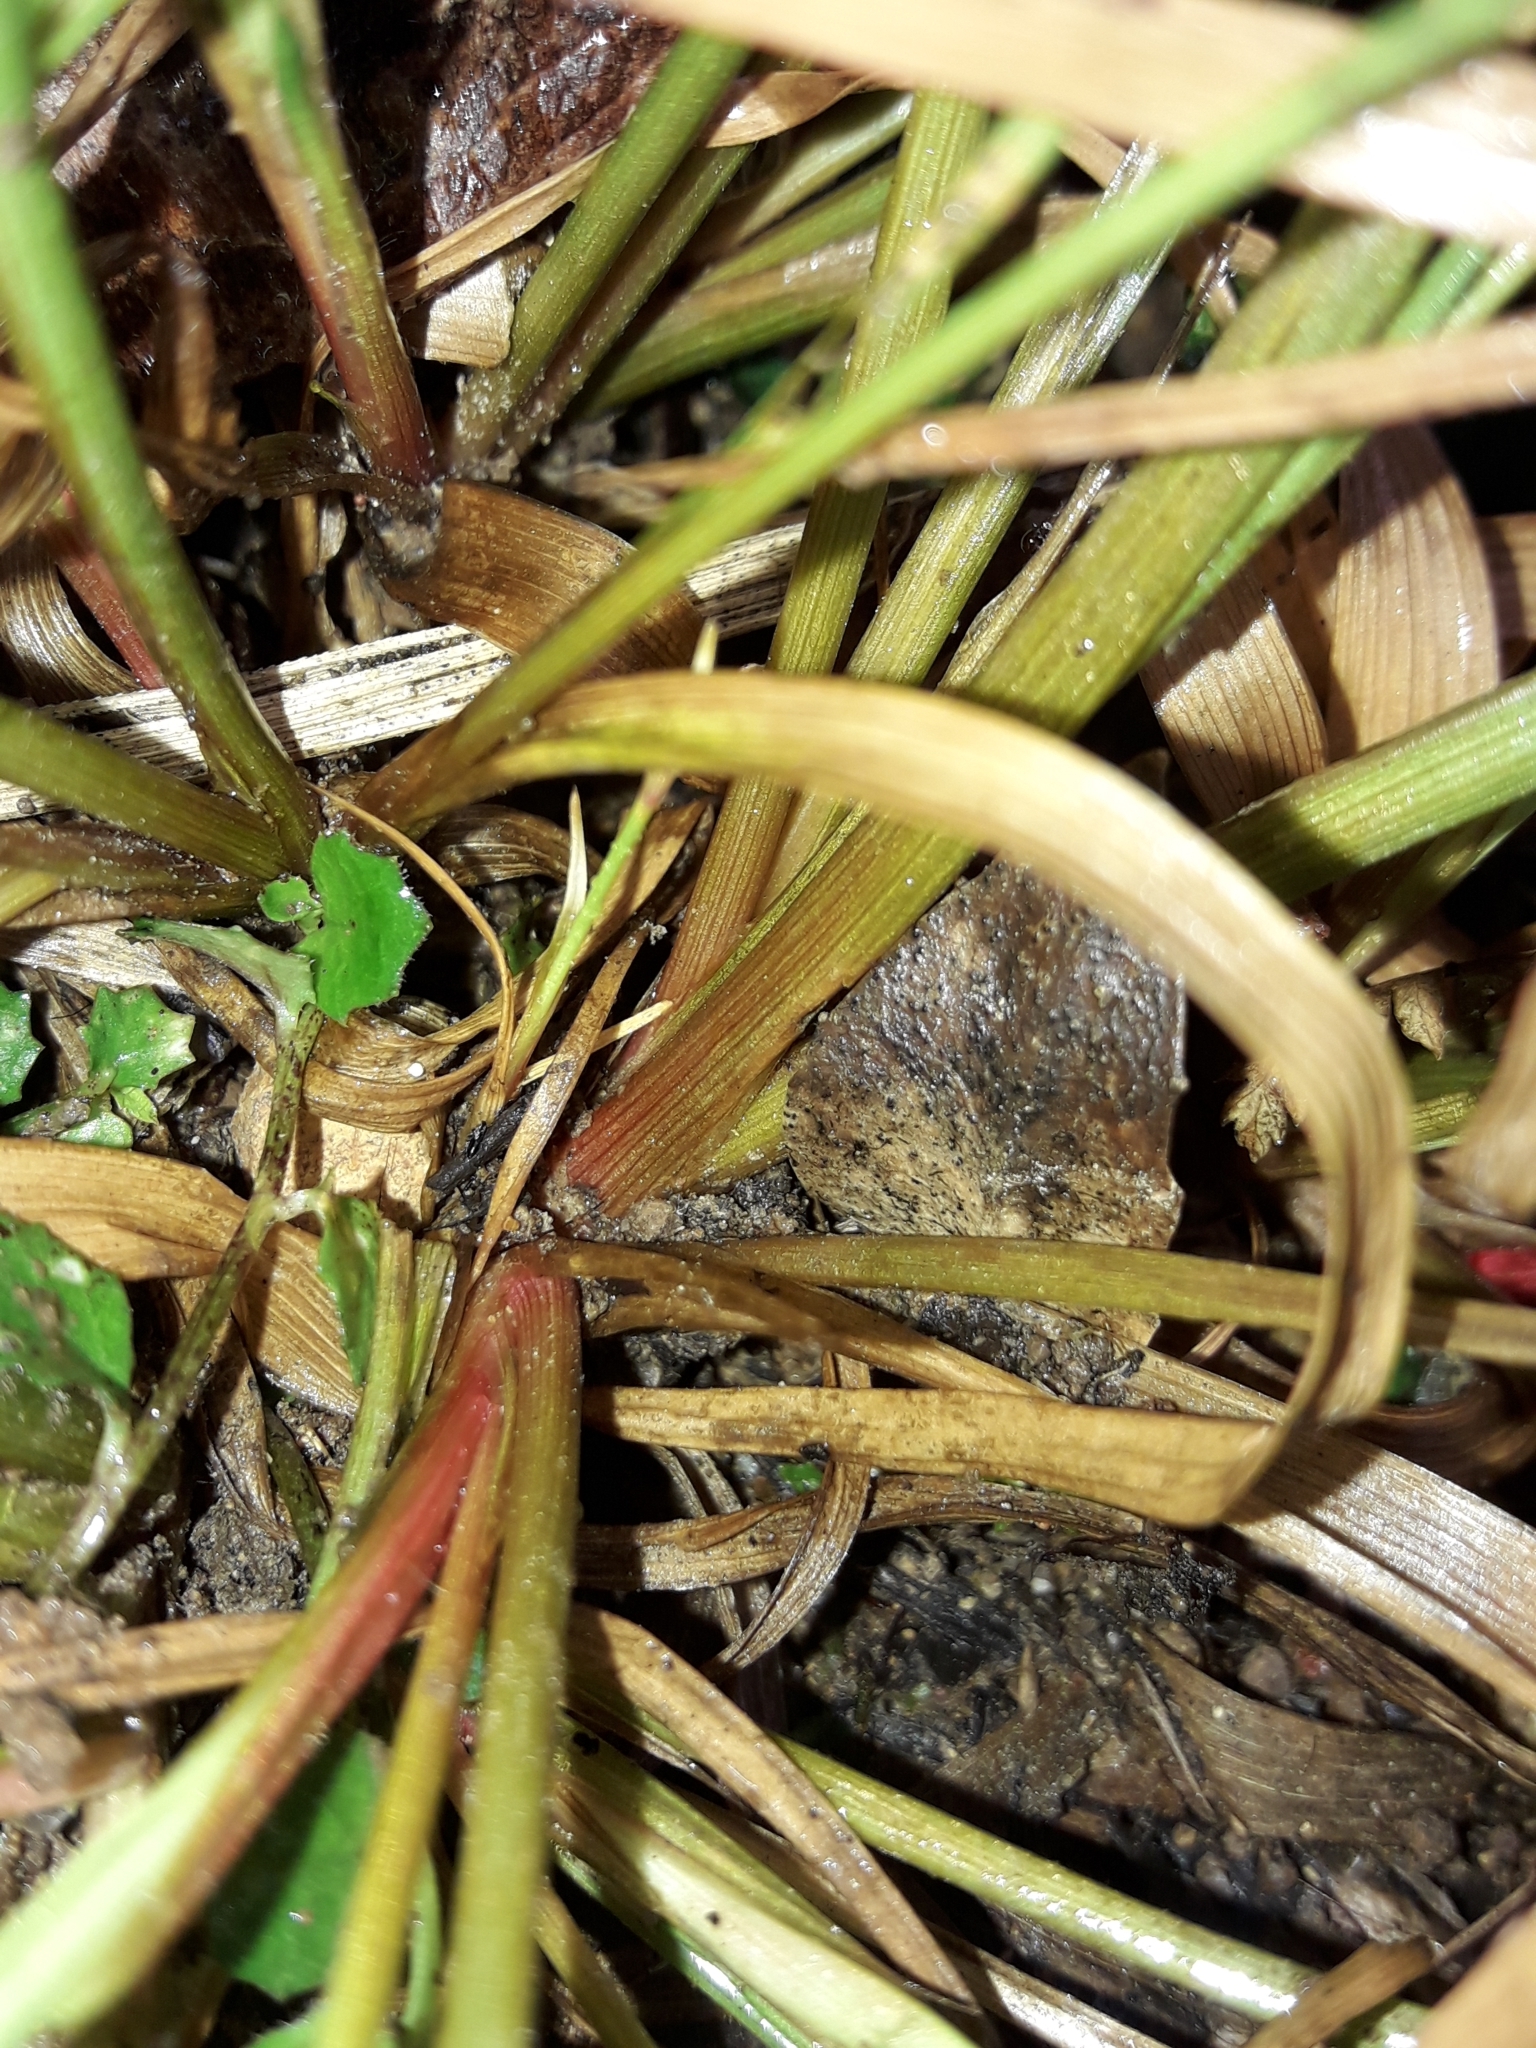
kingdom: Plantae
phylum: Tracheophyta
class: Liliopsida
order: Poales
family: Juncaceae
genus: Juncus
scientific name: Juncus planifolius
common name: Broadleaf rush
